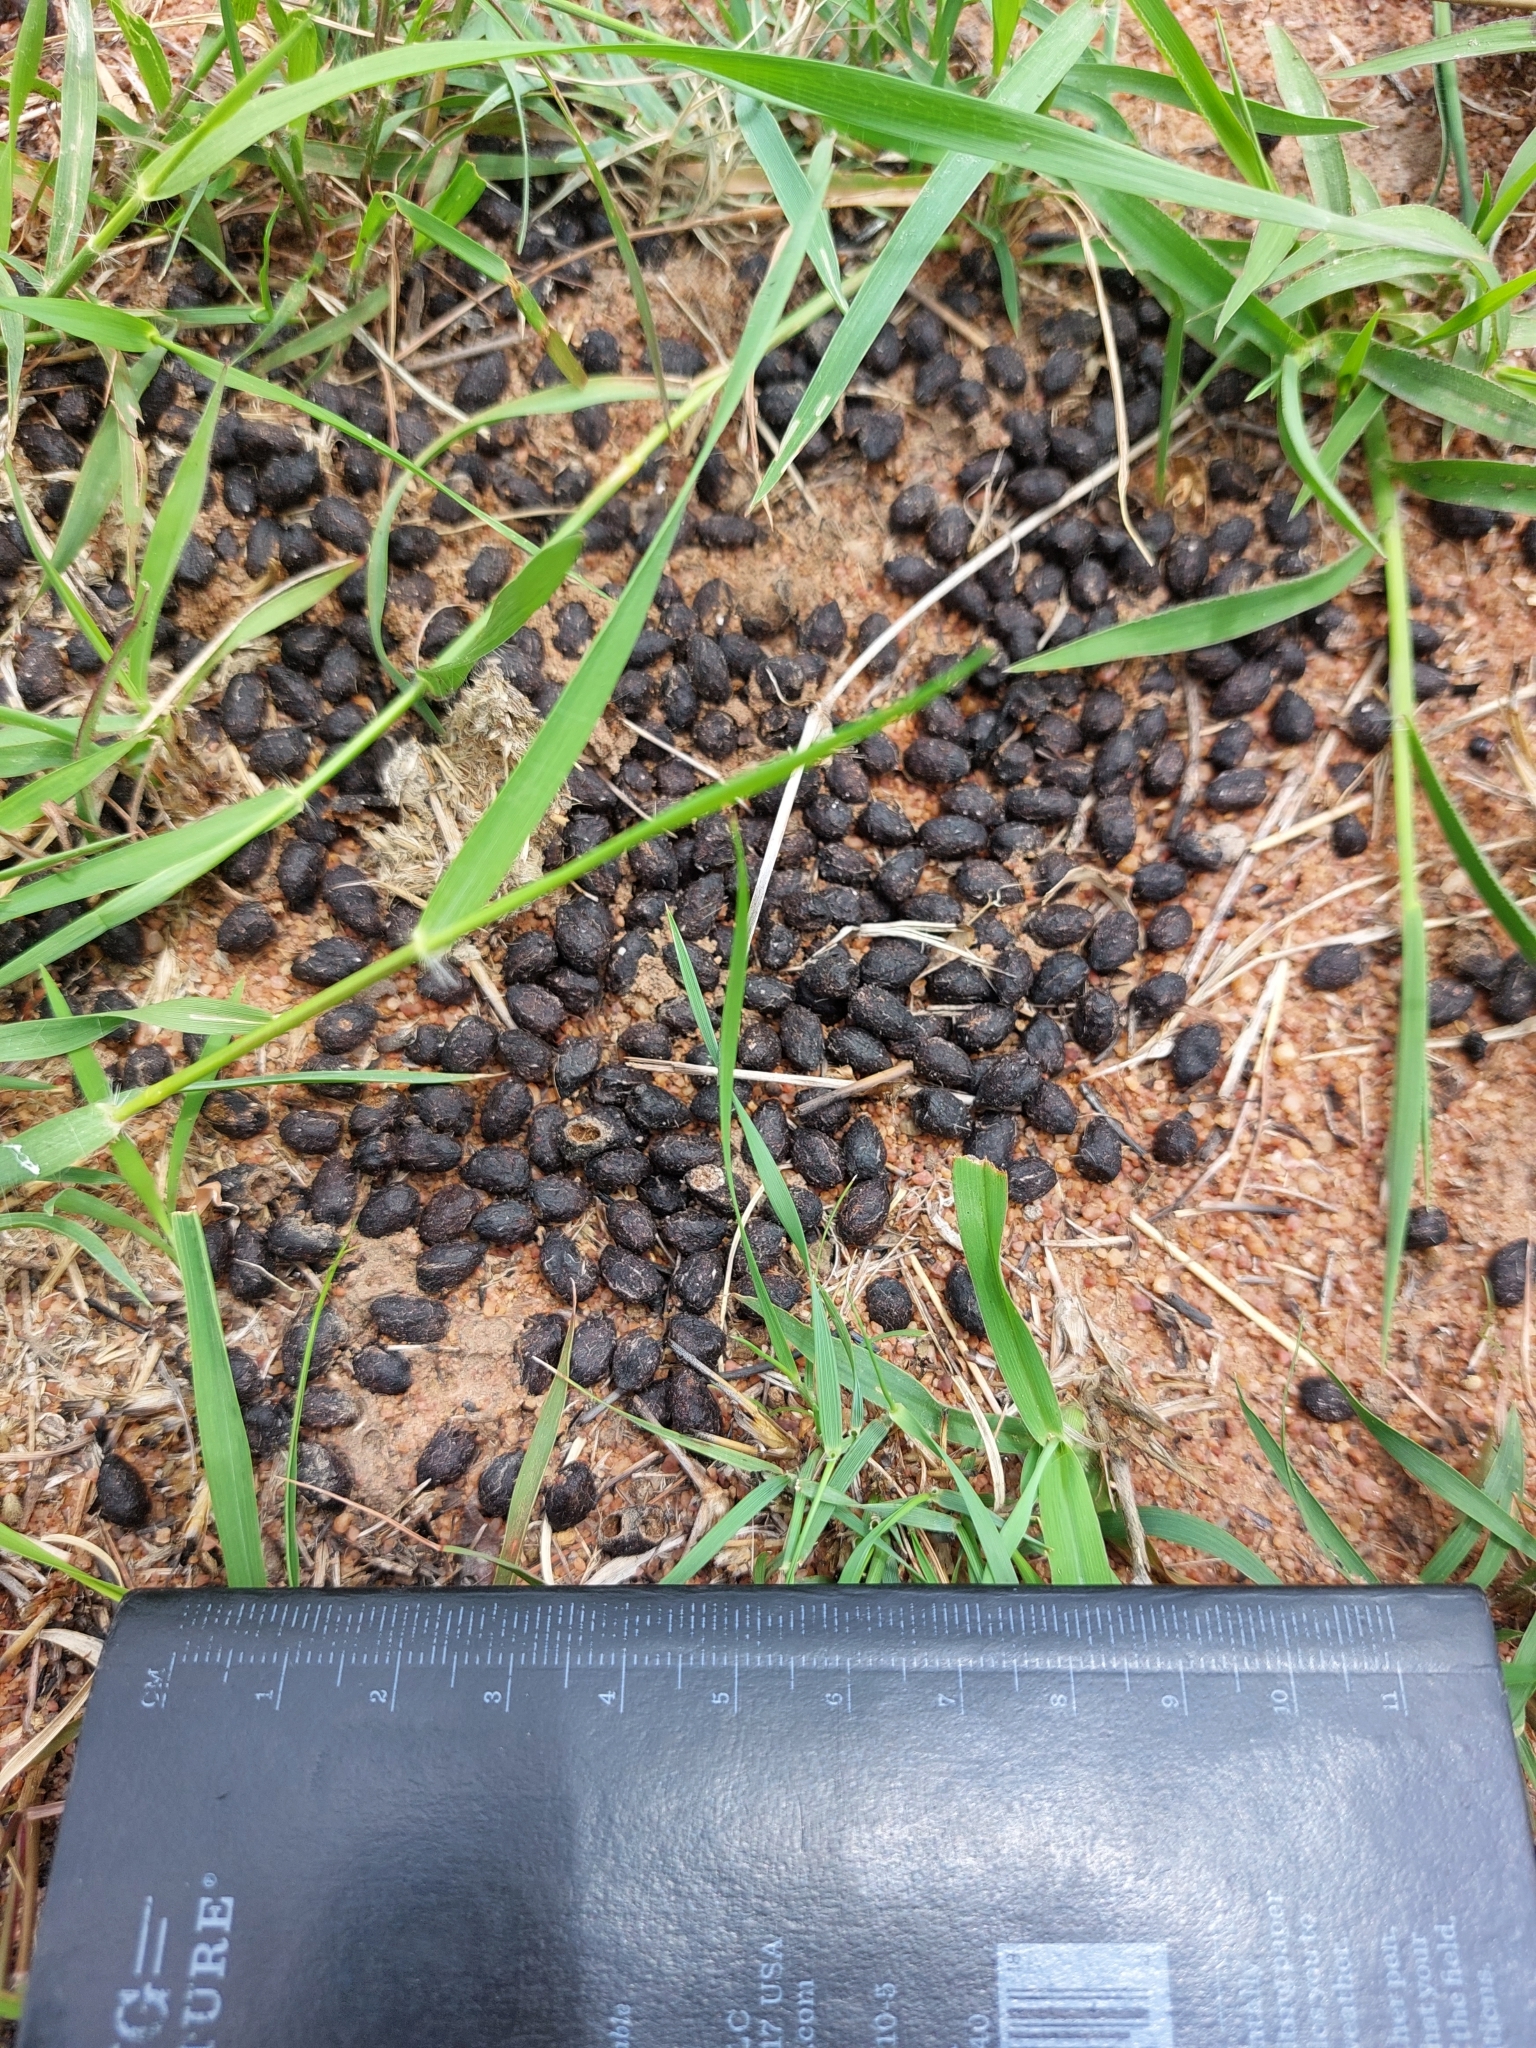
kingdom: Animalia
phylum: Chordata
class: Mammalia
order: Artiodactyla
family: Bovidae
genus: Sylvicapra
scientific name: Sylvicapra grimmia
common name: Bush duiker
